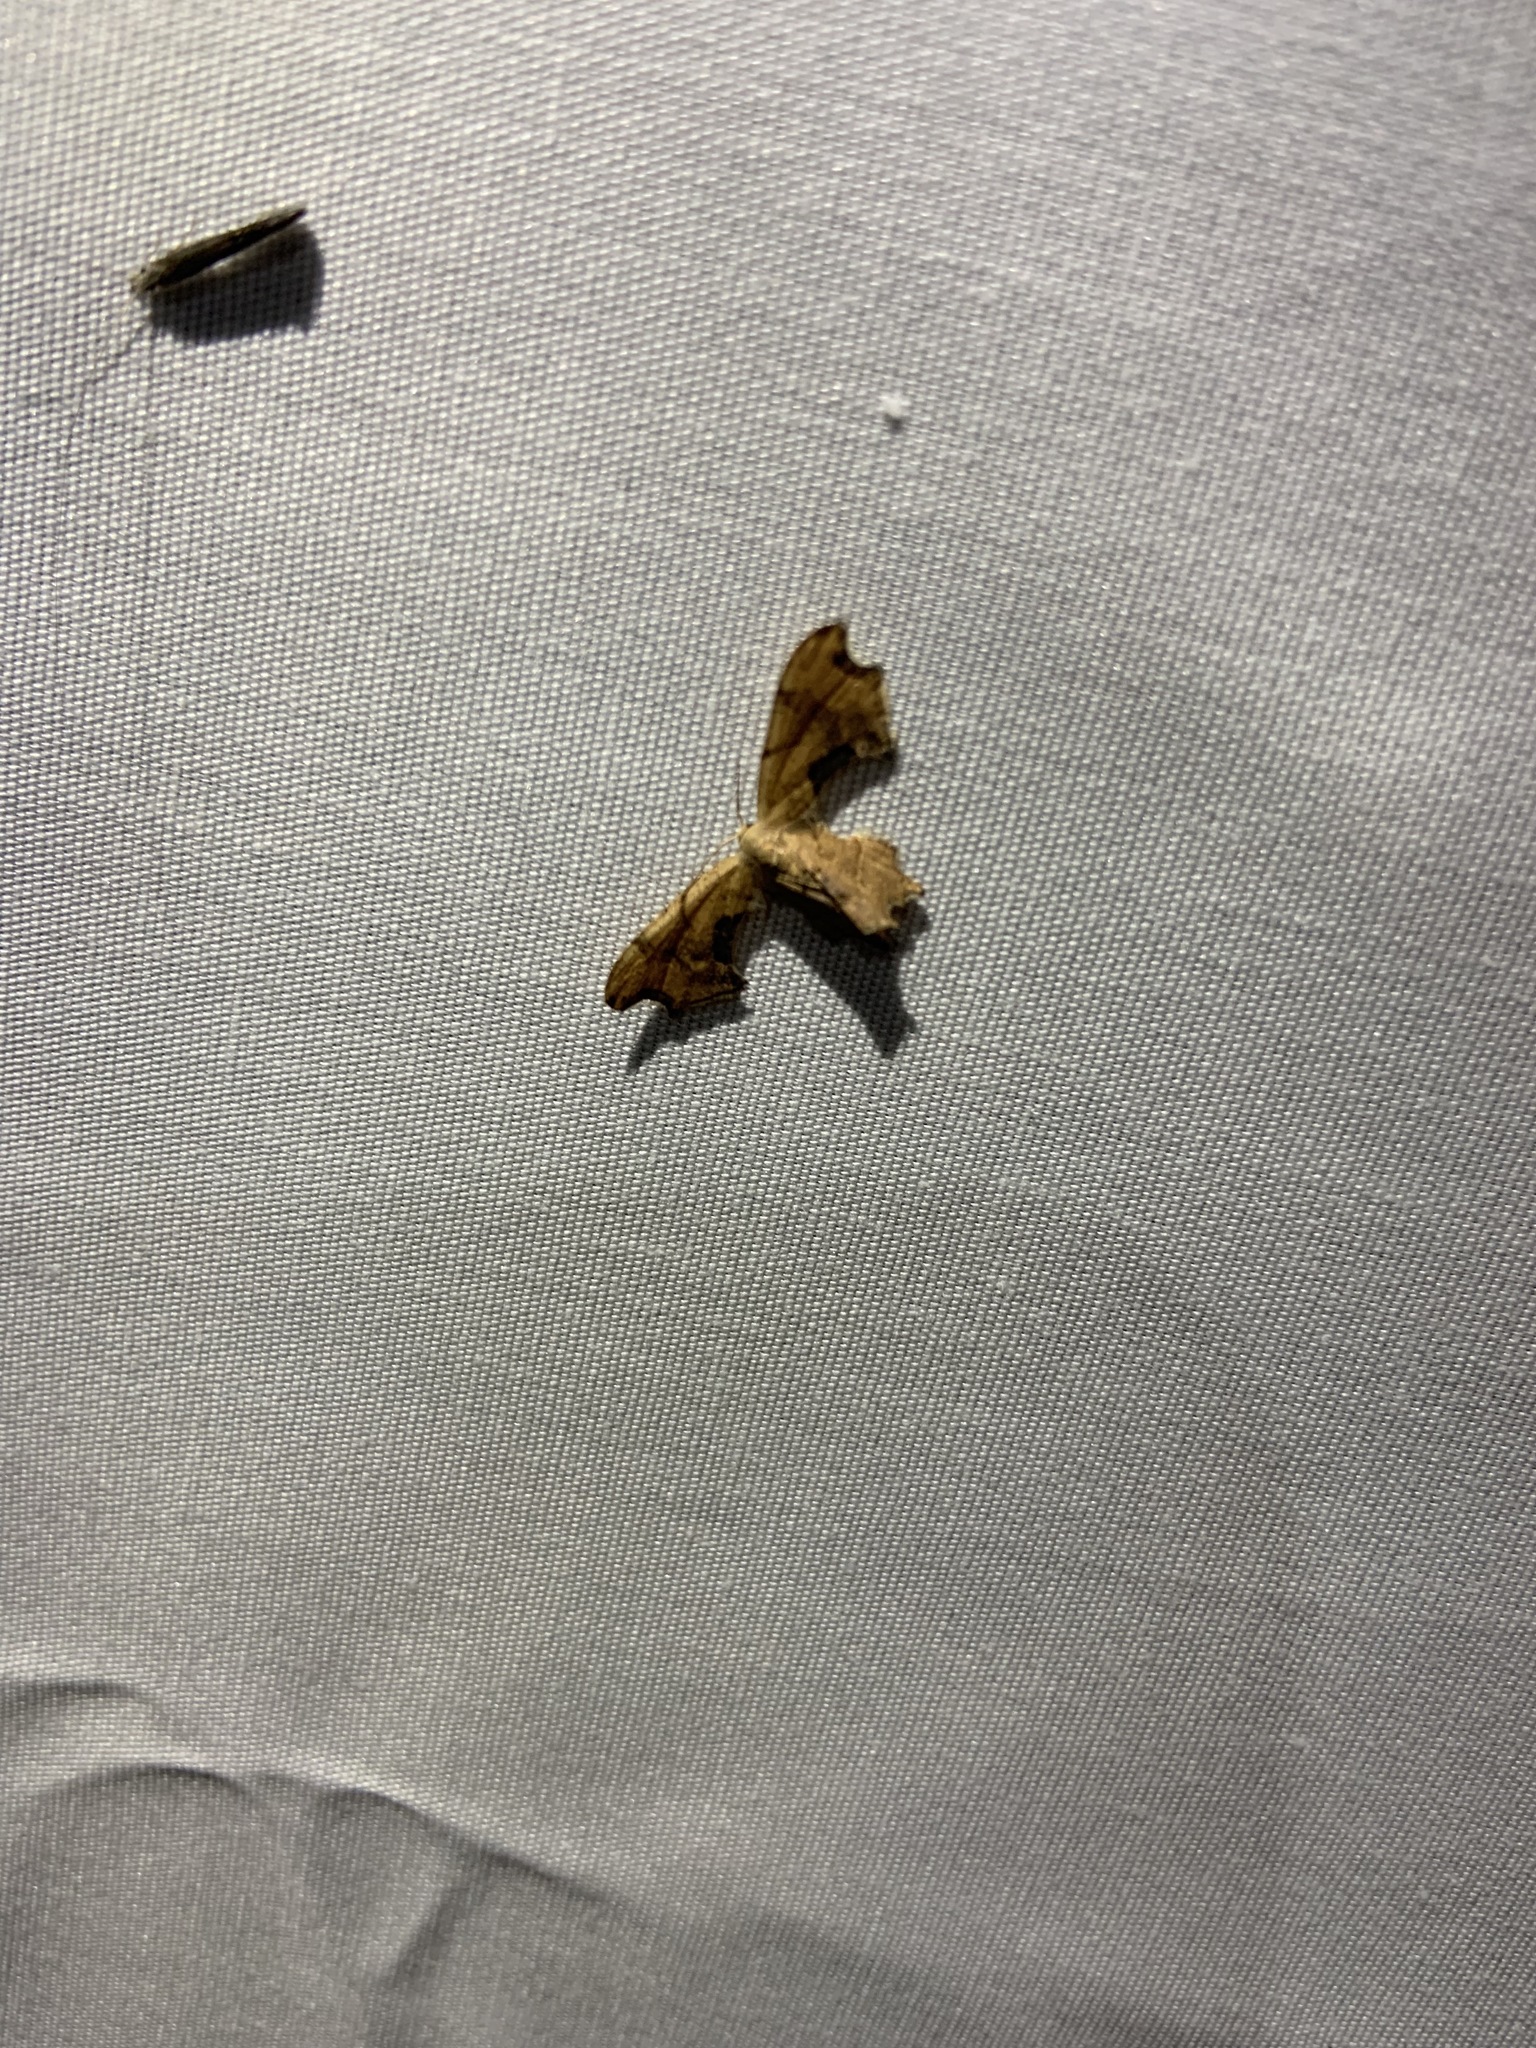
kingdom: Animalia
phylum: Arthropoda
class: Insecta
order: Lepidoptera
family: Uraniidae
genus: Epiplema
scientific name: Epiplema Calledapteryx dryopterata
